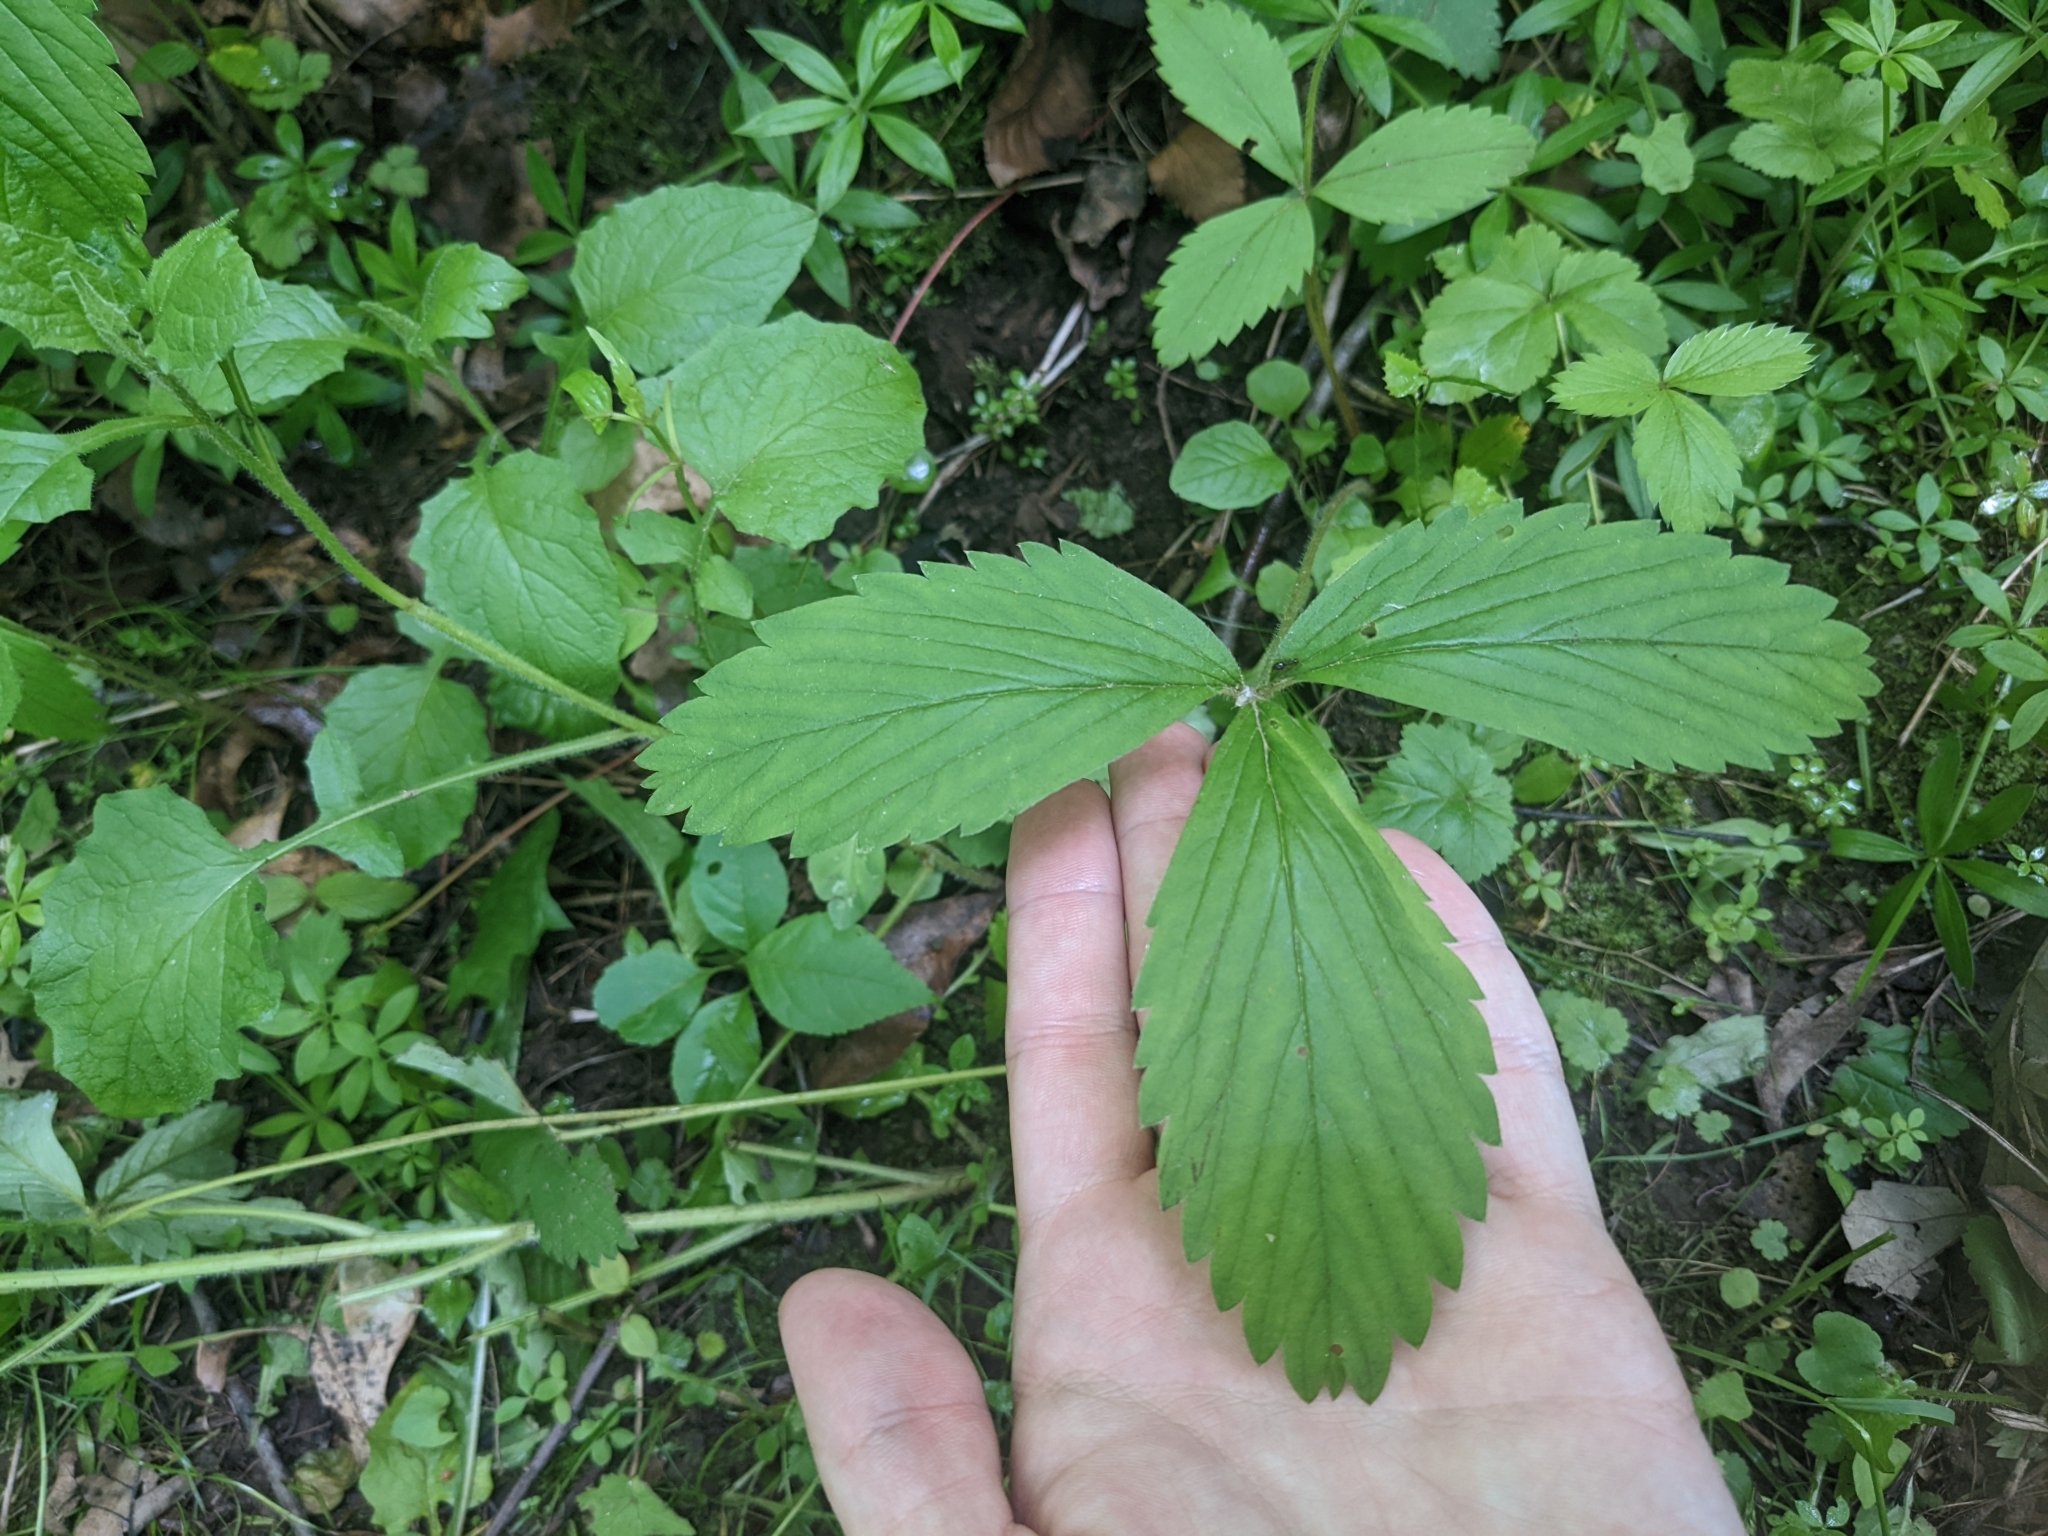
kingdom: Plantae
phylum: Tracheophyta
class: Magnoliopsida
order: Rosales
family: Rosaceae
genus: Fragaria
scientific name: Fragaria virginiana
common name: Thickleaved wild strawberry
